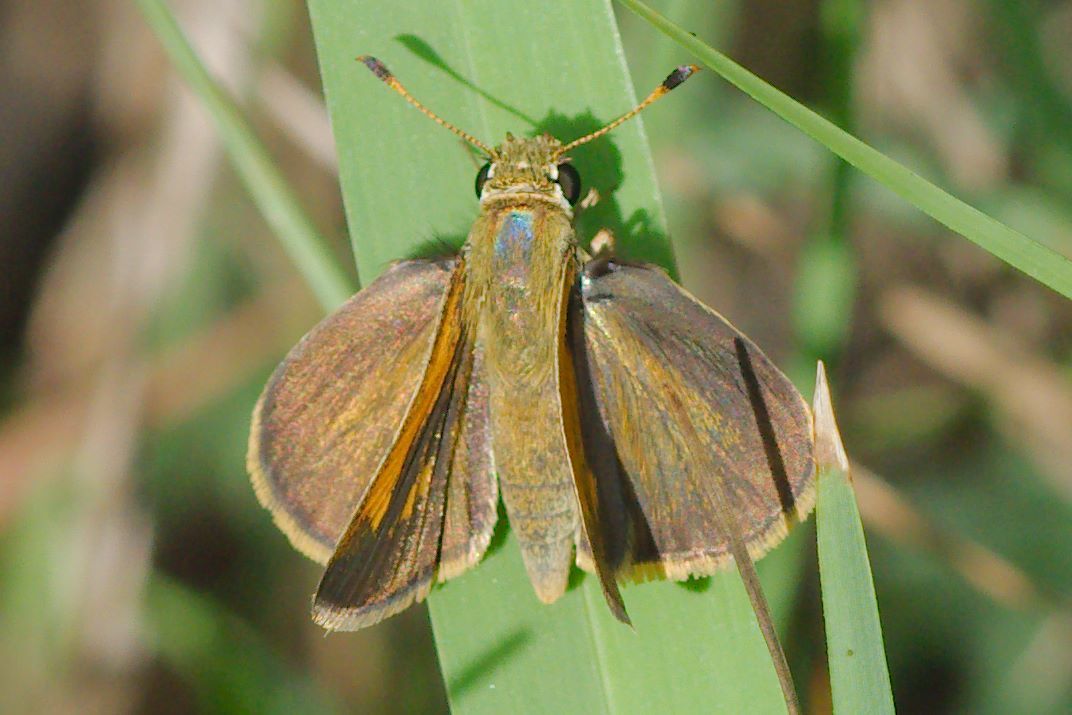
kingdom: Animalia
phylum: Arthropoda
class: Insecta
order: Lepidoptera
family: Hesperiidae
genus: Polites
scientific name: Polites baracoa
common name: Baracoa skipper
